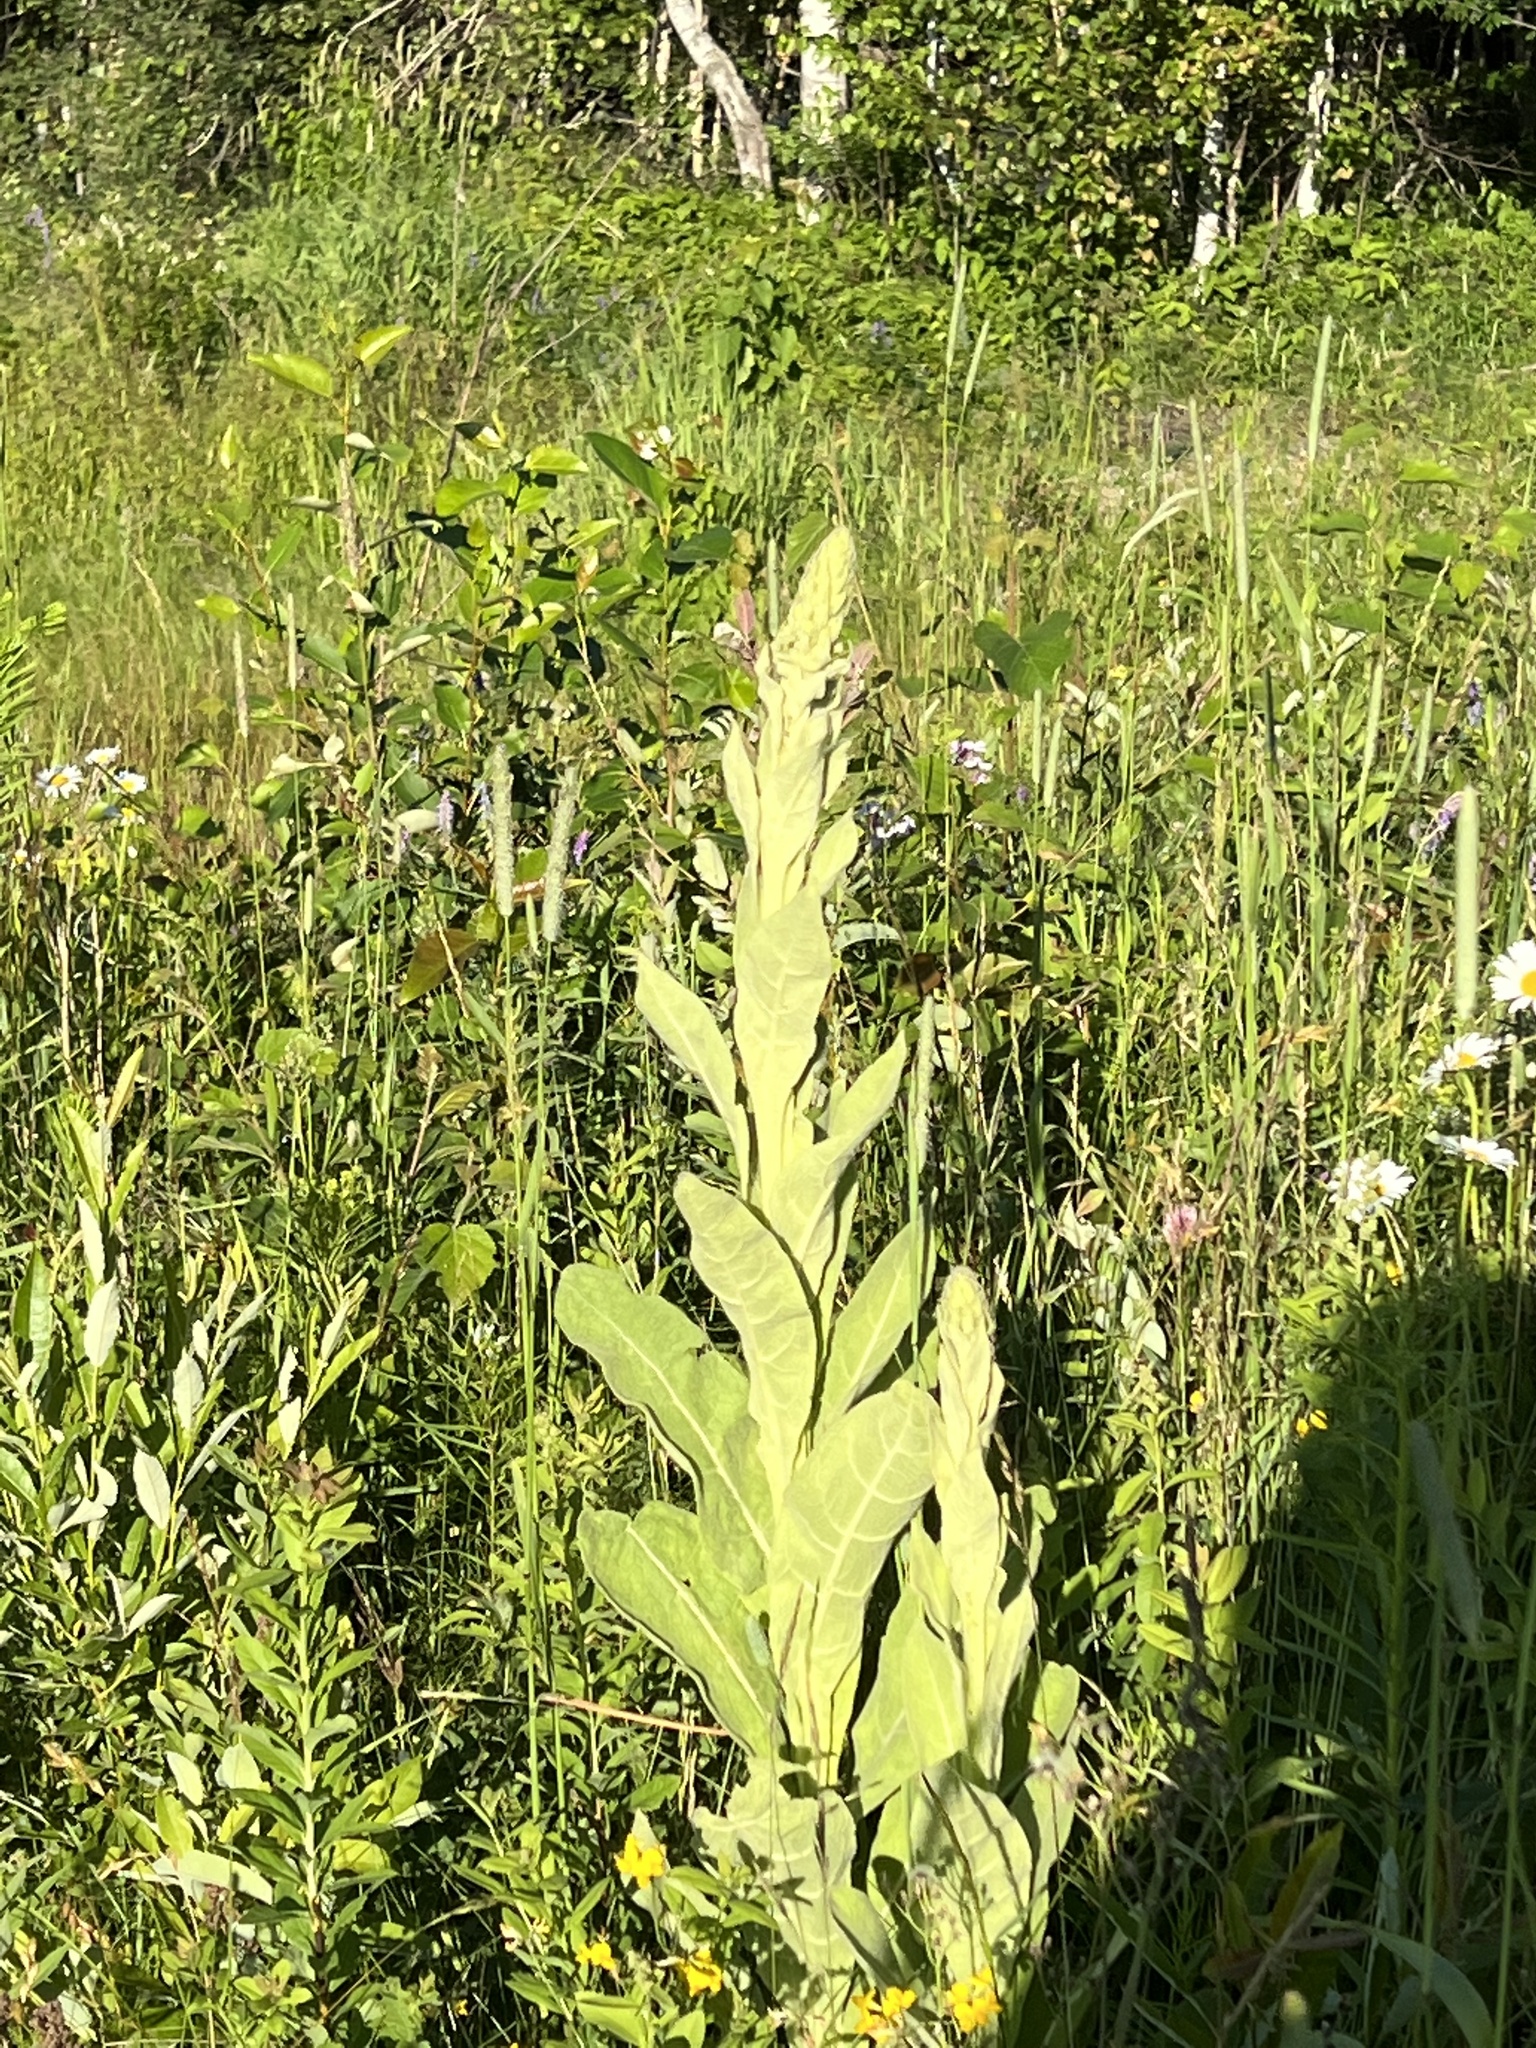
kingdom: Plantae
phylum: Tracheophyta
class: Magnoliopsida
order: Lamiales
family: Scrophulariaceae
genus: Verbascum
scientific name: Verbascum thapsus
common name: Common mullein
